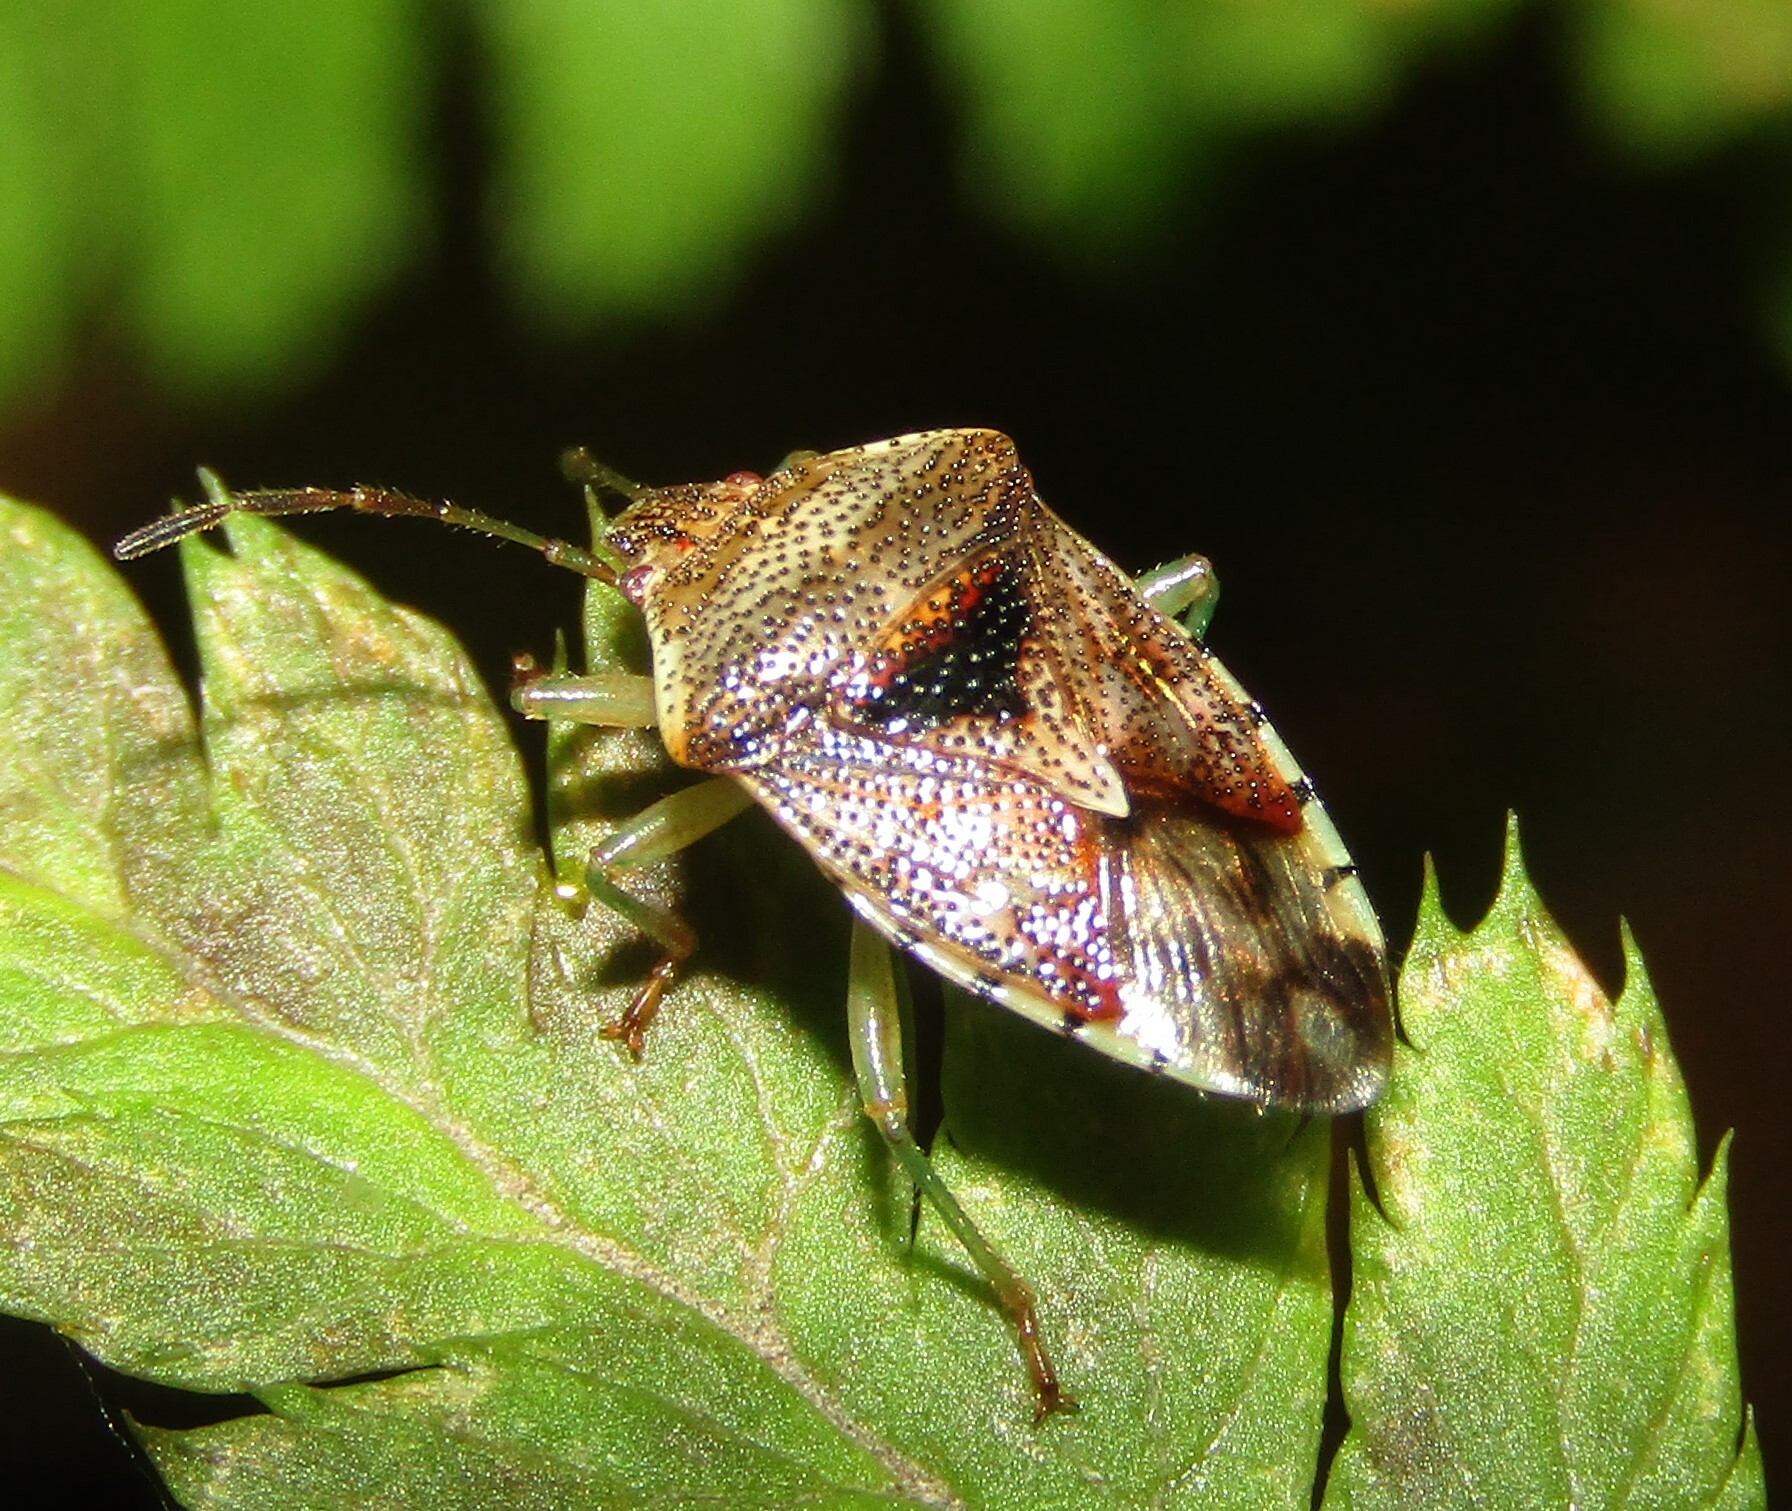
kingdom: Animalia
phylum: Arthropoda
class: Insecta
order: Hemiptera
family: Acanthosomatidae
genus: Elasmucha
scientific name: Elasmucha grisea
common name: Parent bug
